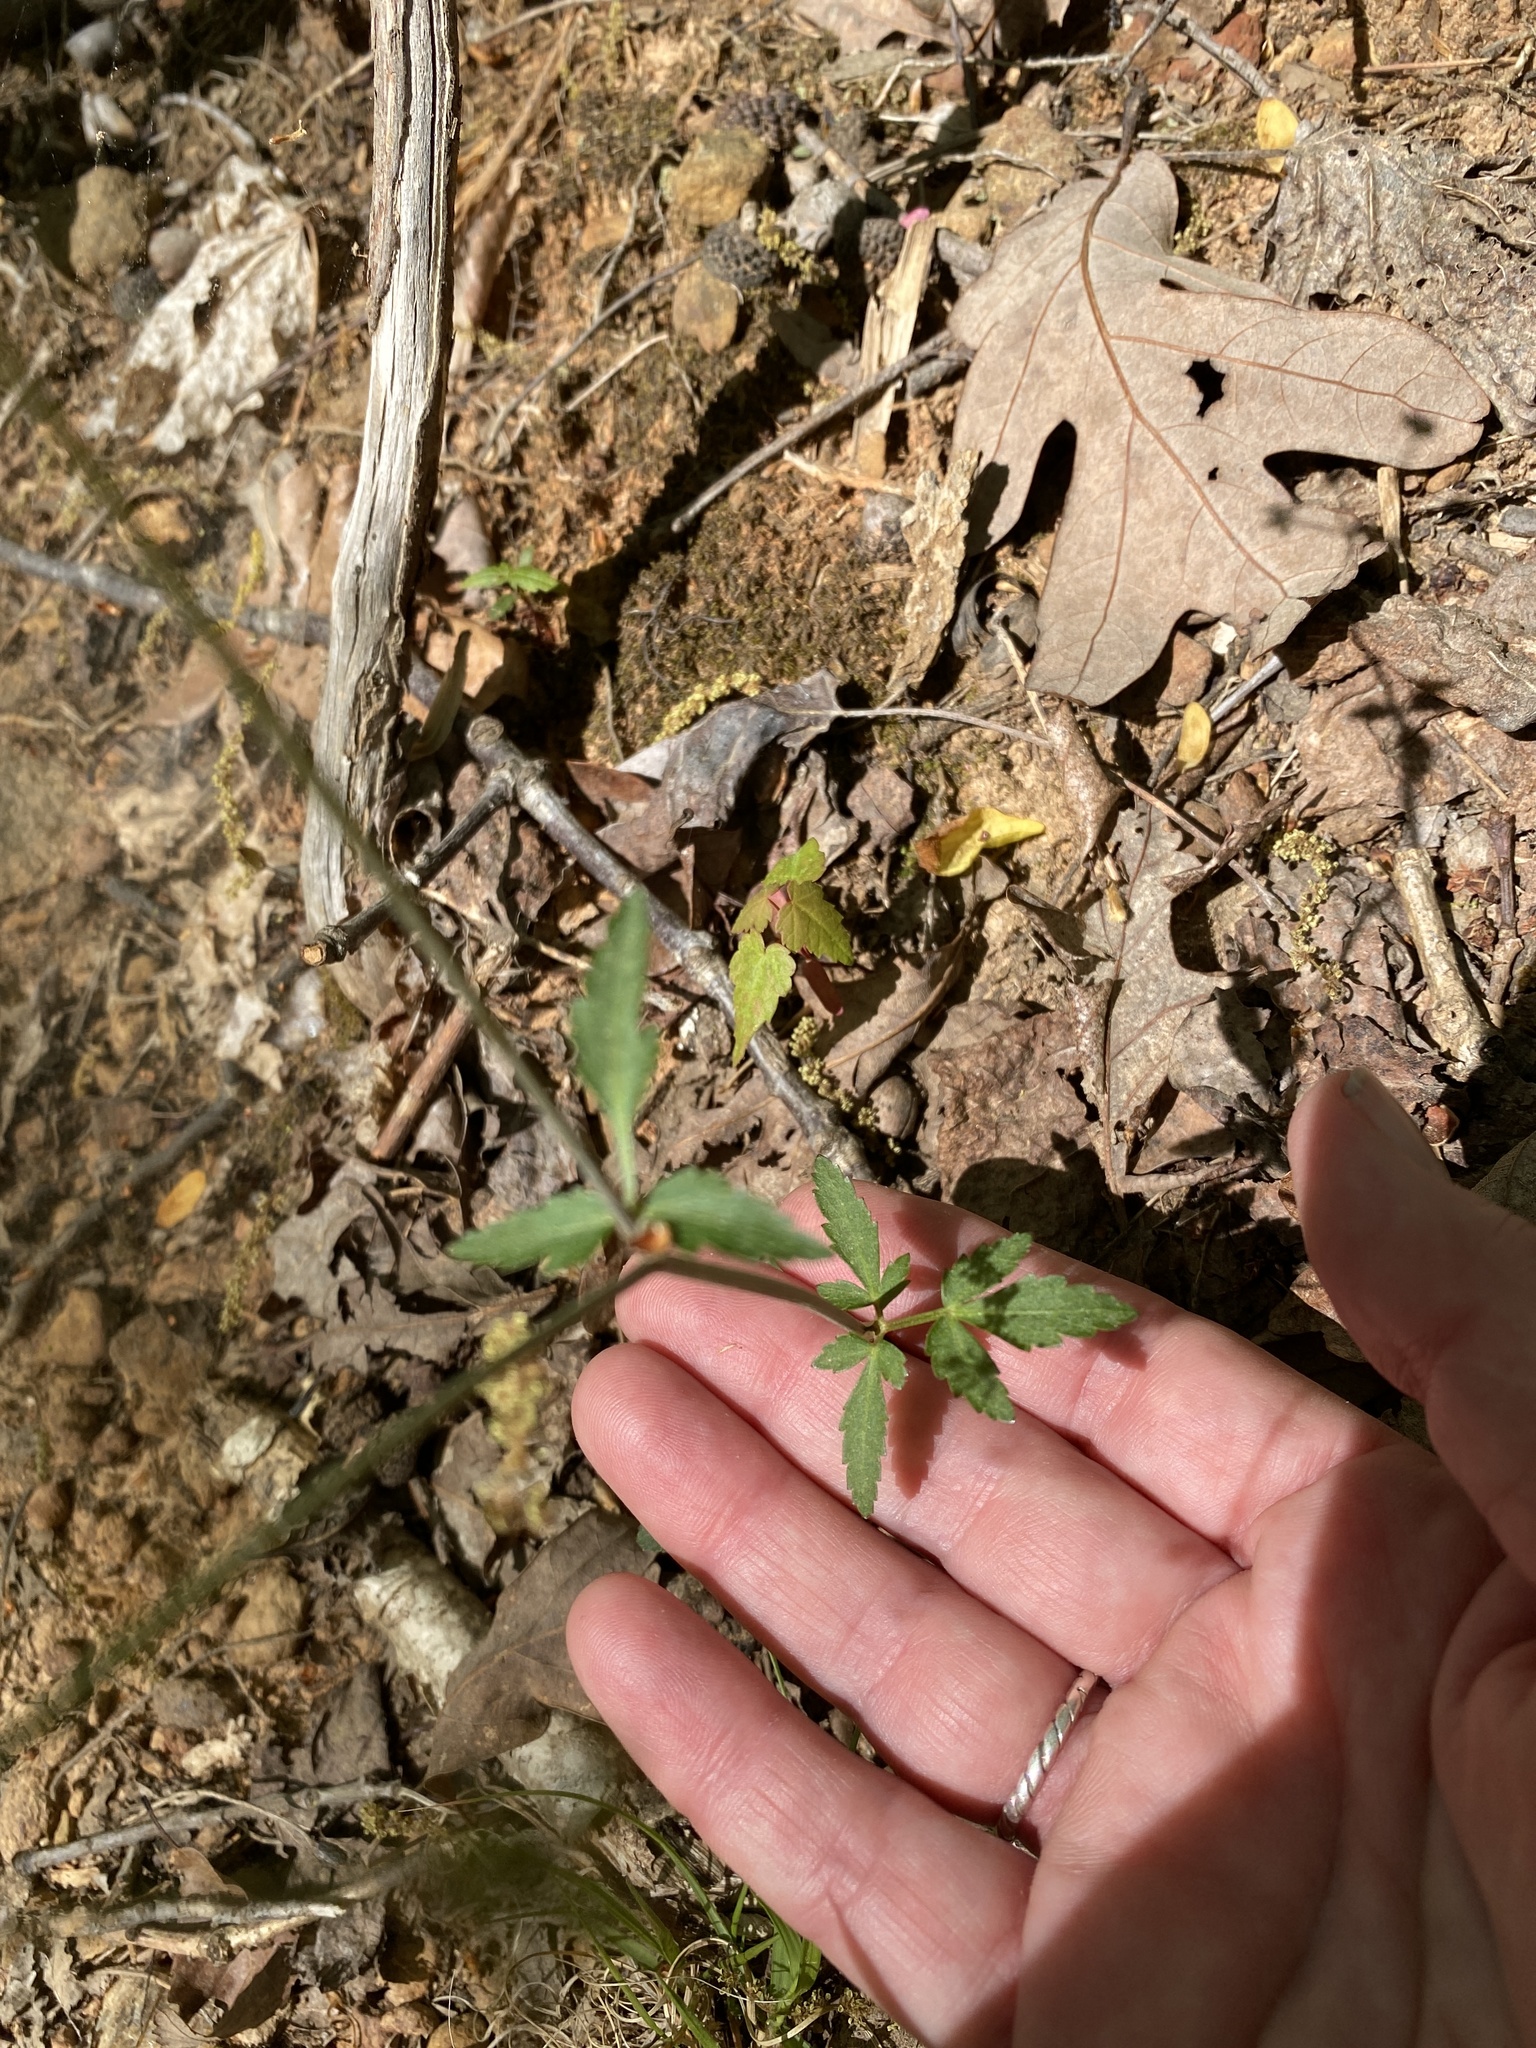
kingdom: Plantae
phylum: Tracheophyta
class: Magnoliopsida
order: Apiales
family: Apiaceae
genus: Thaspium
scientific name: Thaspium trifoliatum
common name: Purple meadow-parsnip
